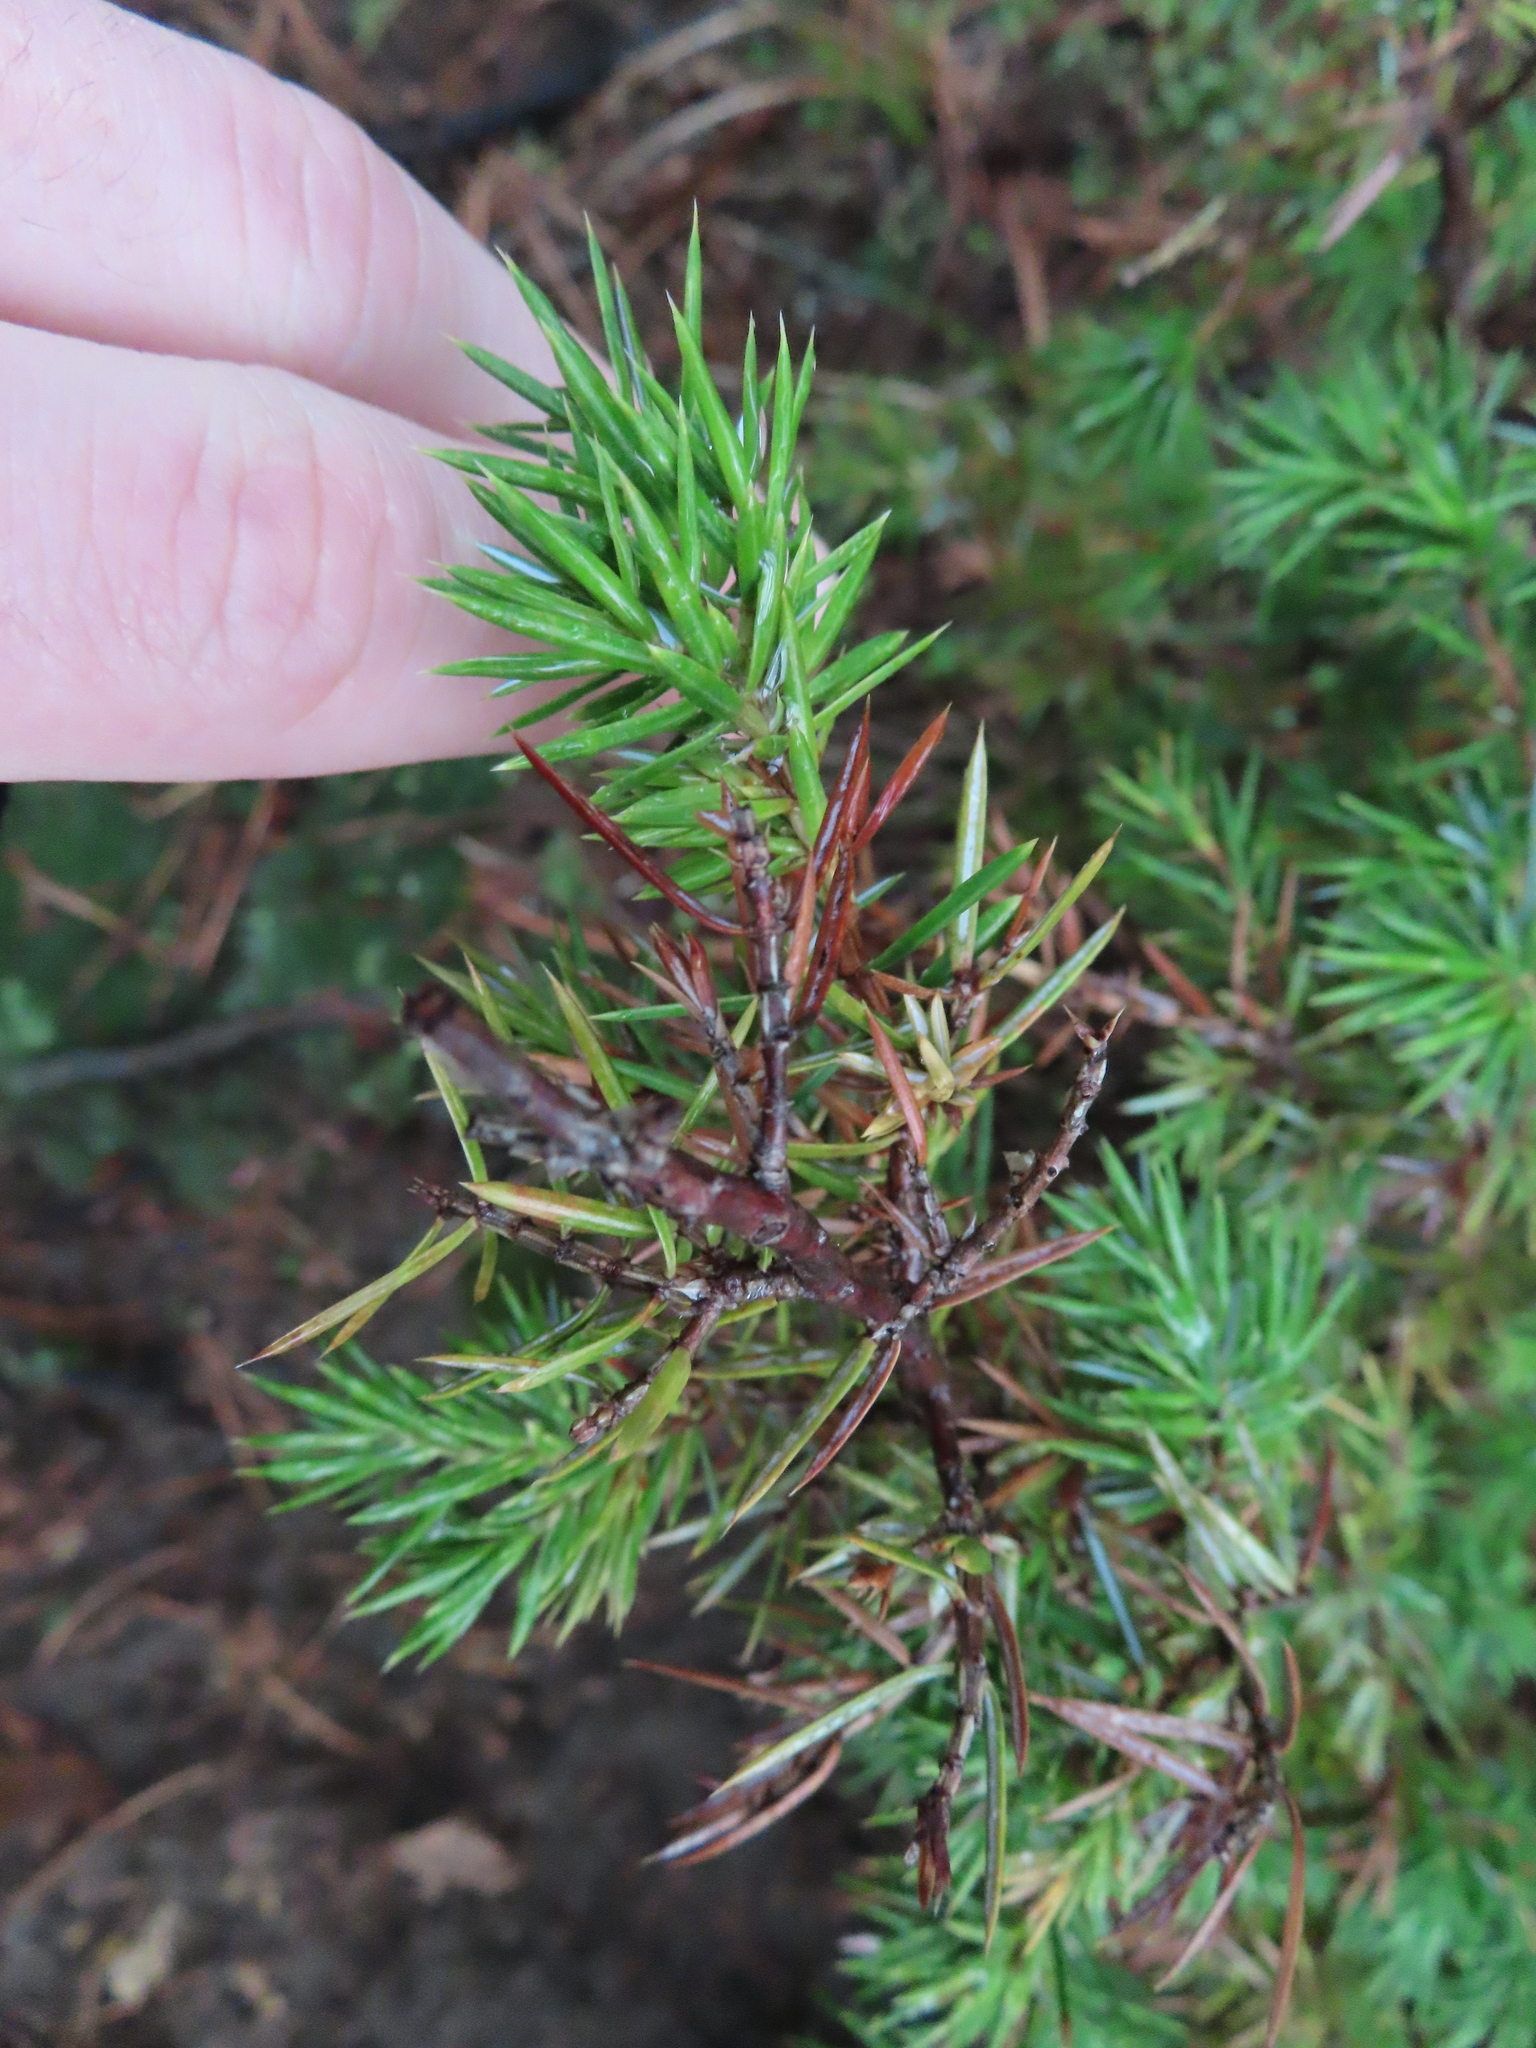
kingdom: Plantae
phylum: Tracheophyta
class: Pinopsida
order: Pinales
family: Cupressaceae
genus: Juniperus
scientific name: Juniperus communis
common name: Common juniper
